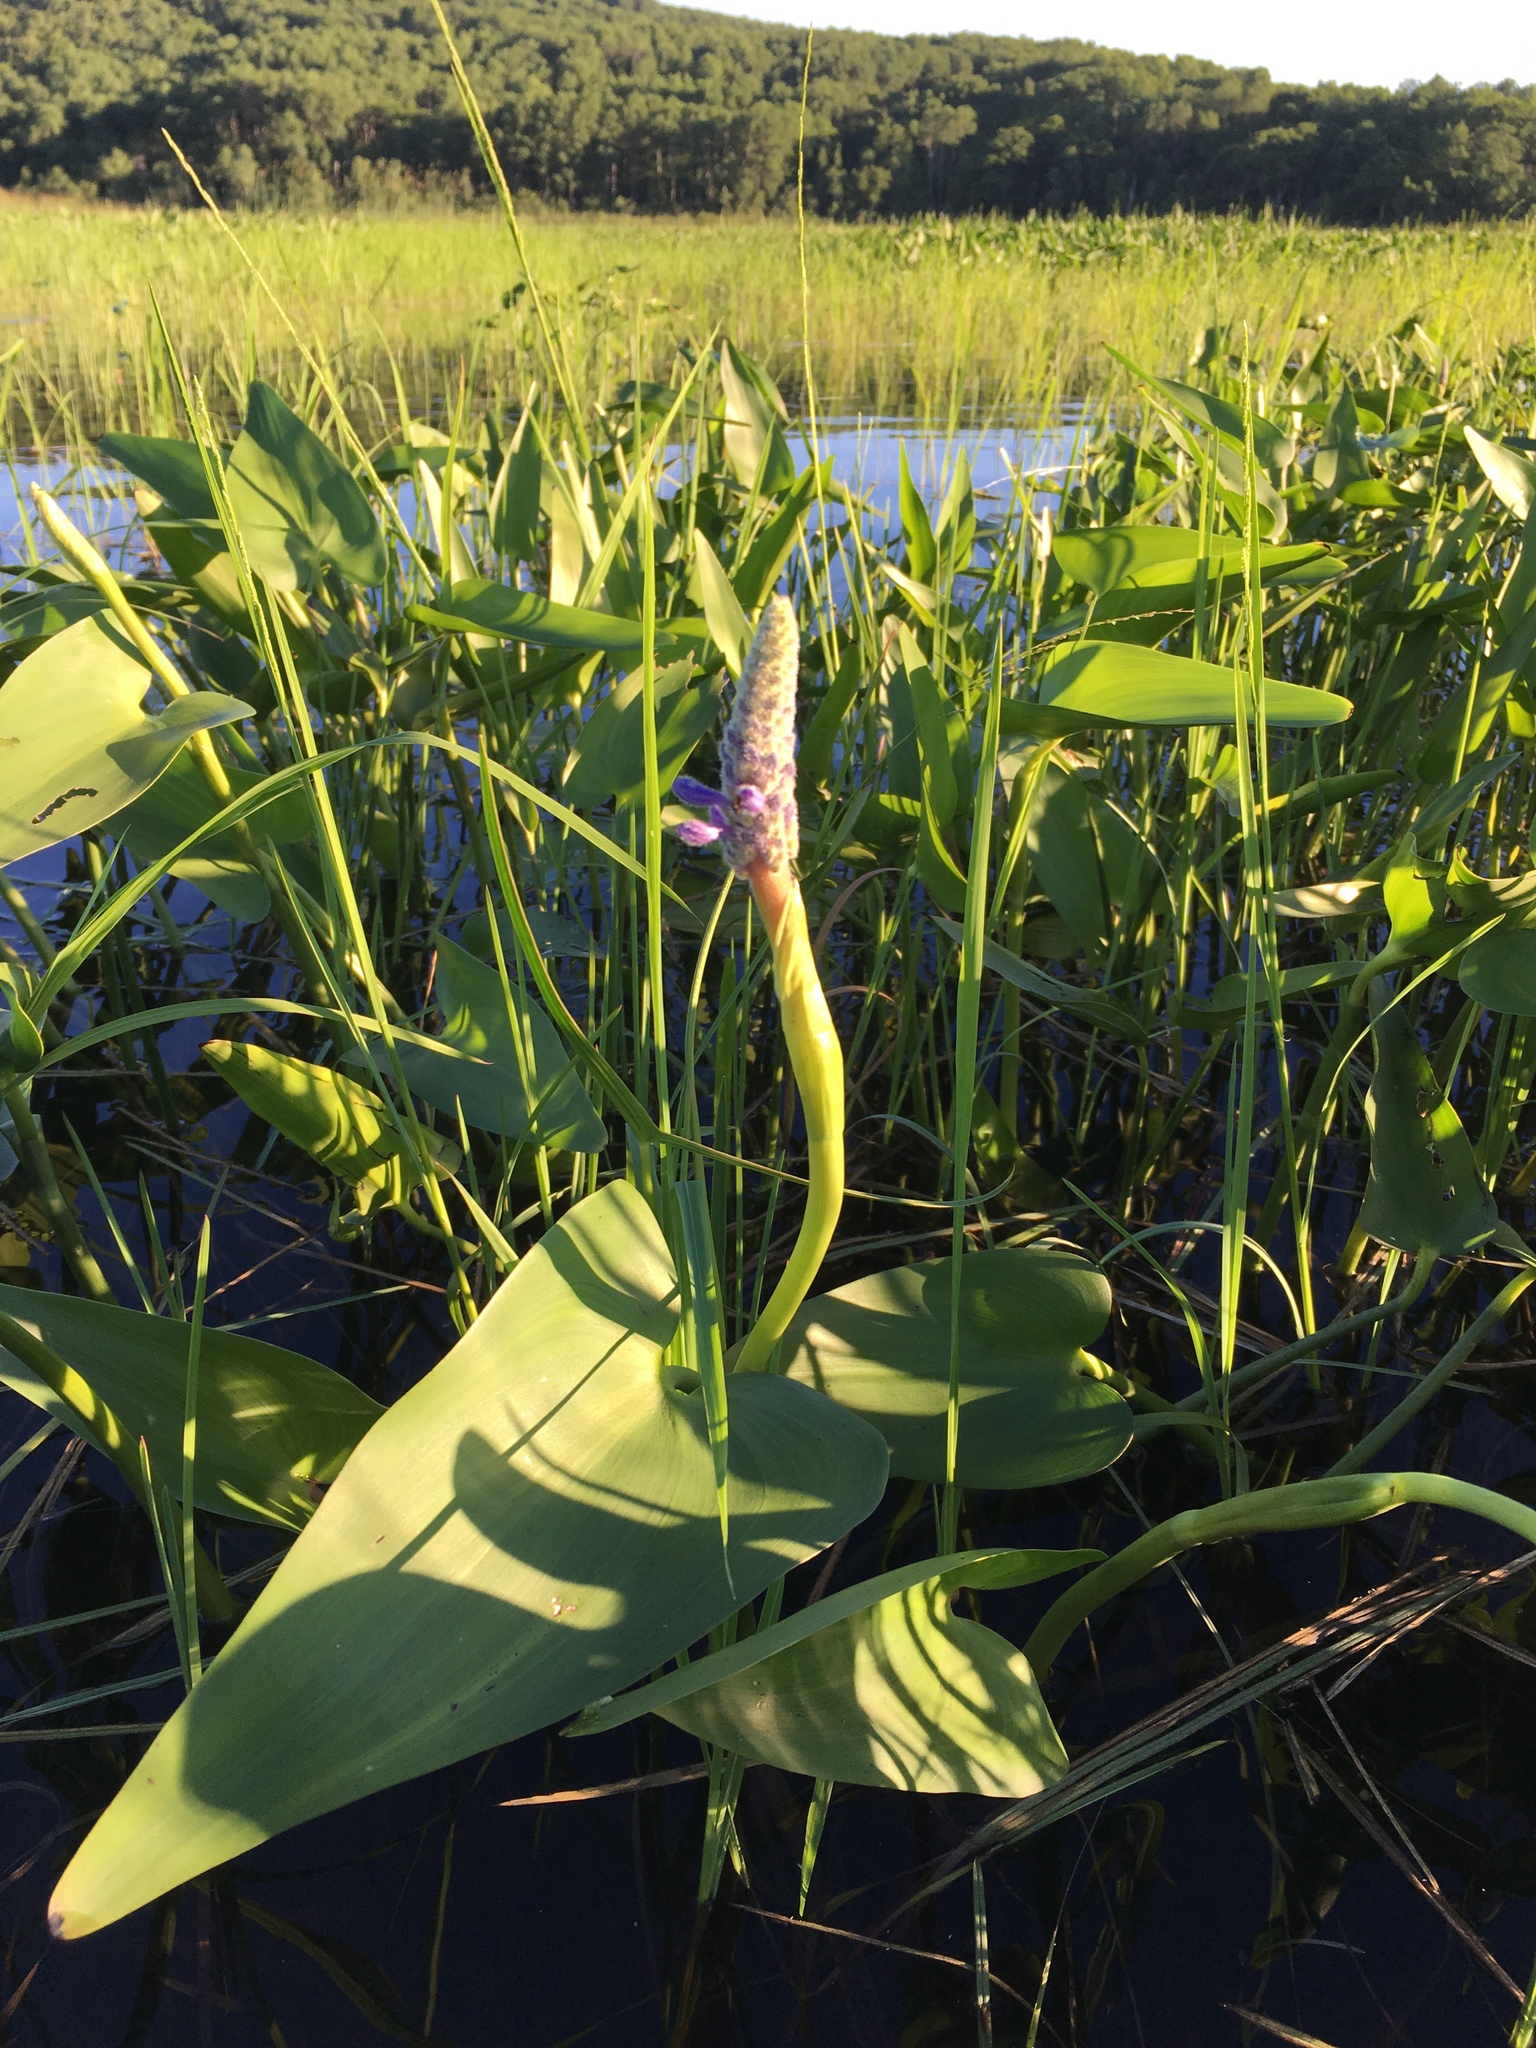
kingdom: Plantae
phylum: Tracheophyta
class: Liliopsida
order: Commelinales
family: Pontederiaceae
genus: Pontederia
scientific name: Pontederia cordata
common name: Pickerelweed
